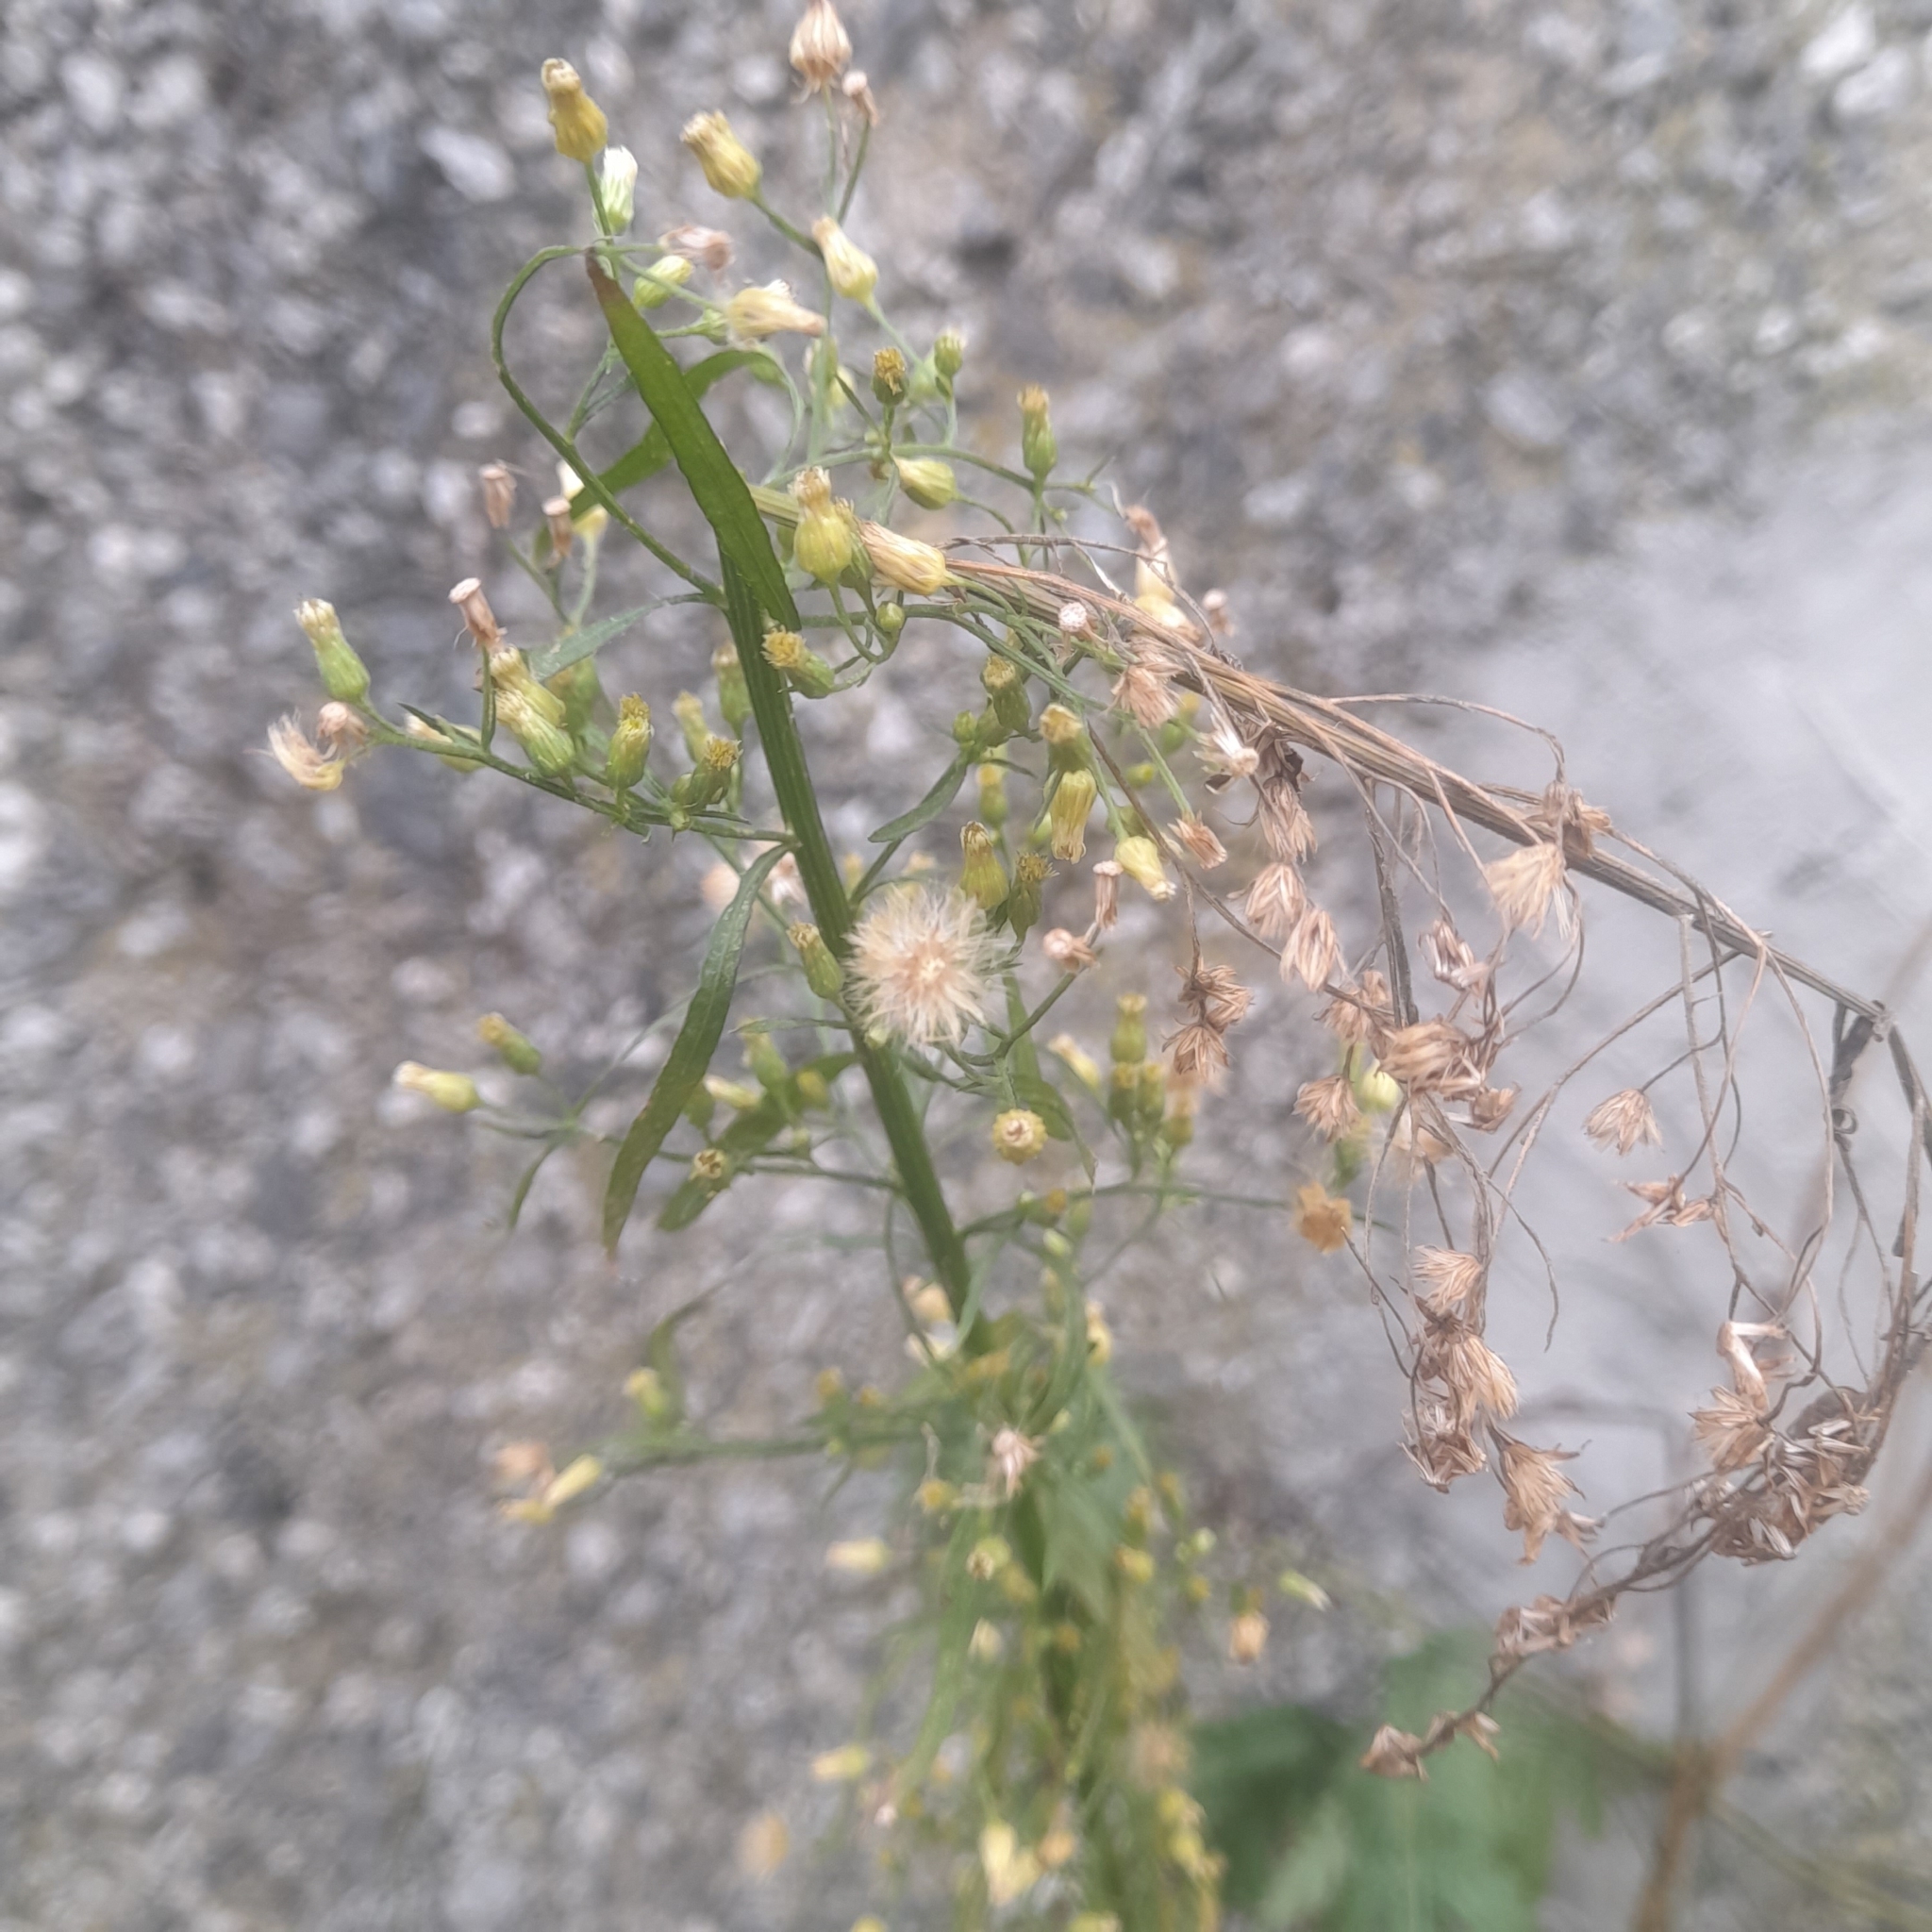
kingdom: Plantae
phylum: Tracheophyta
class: Magnoliopsida
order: Asterales
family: Asteraceae
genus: Erigeron
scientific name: Erigeron canadensis
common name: Canadian fleabane
